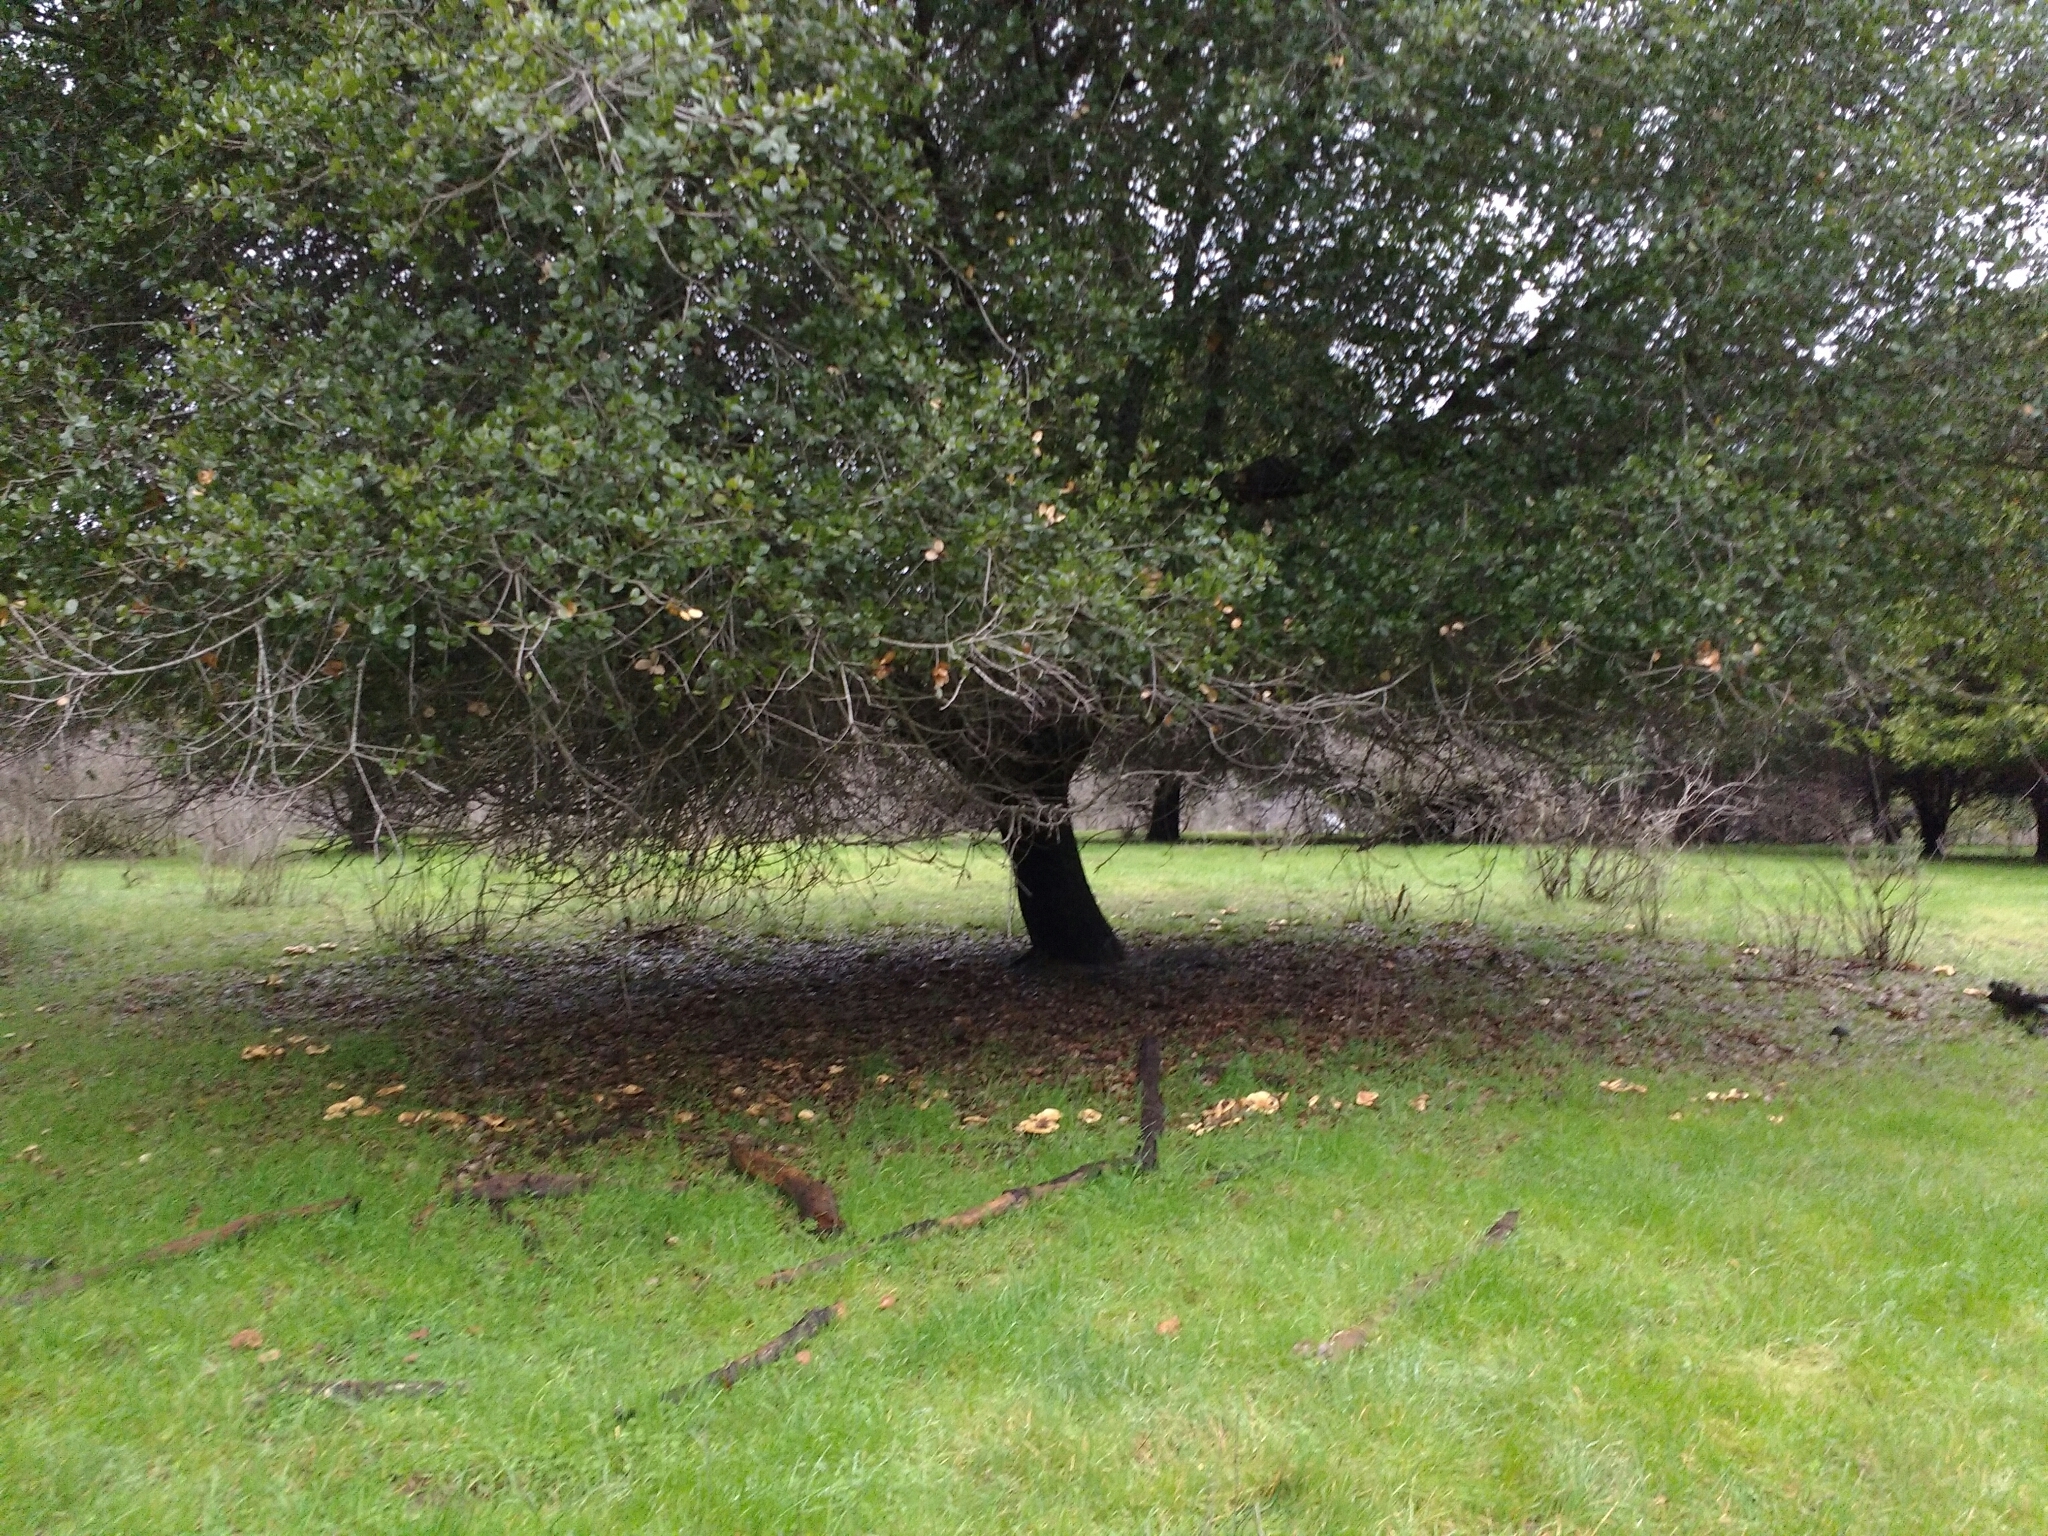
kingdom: Fungi
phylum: Basidiomycota
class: Agaricomycetes
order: Russulales
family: Russulaceae
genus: Lactarius
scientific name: Lactarius alnicola
